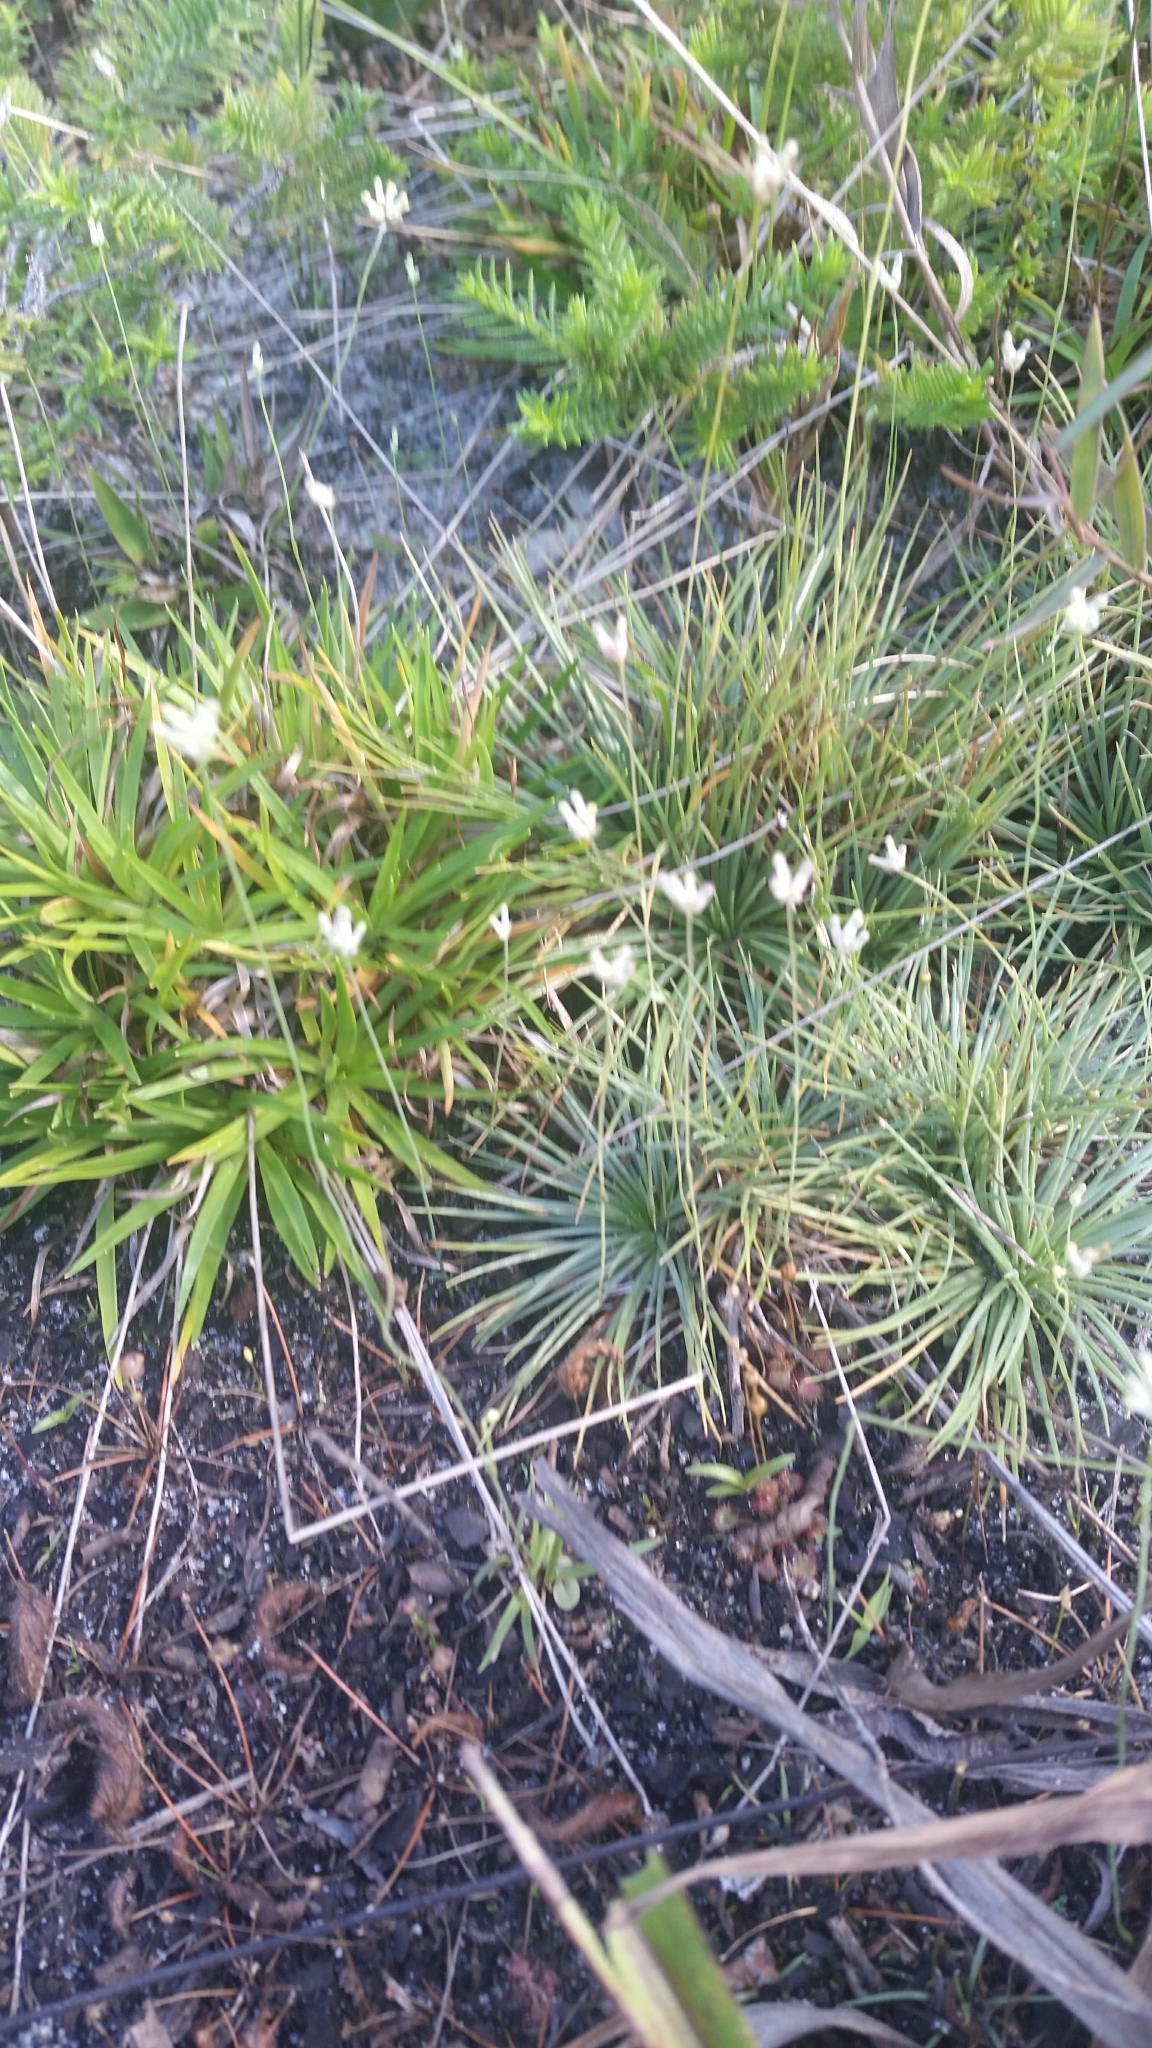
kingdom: Plantae
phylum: Tracheophyta
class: Liliopsida
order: Dioscoreales
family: Burmanniaceae
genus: Burmannia
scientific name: Burmannia capitata
